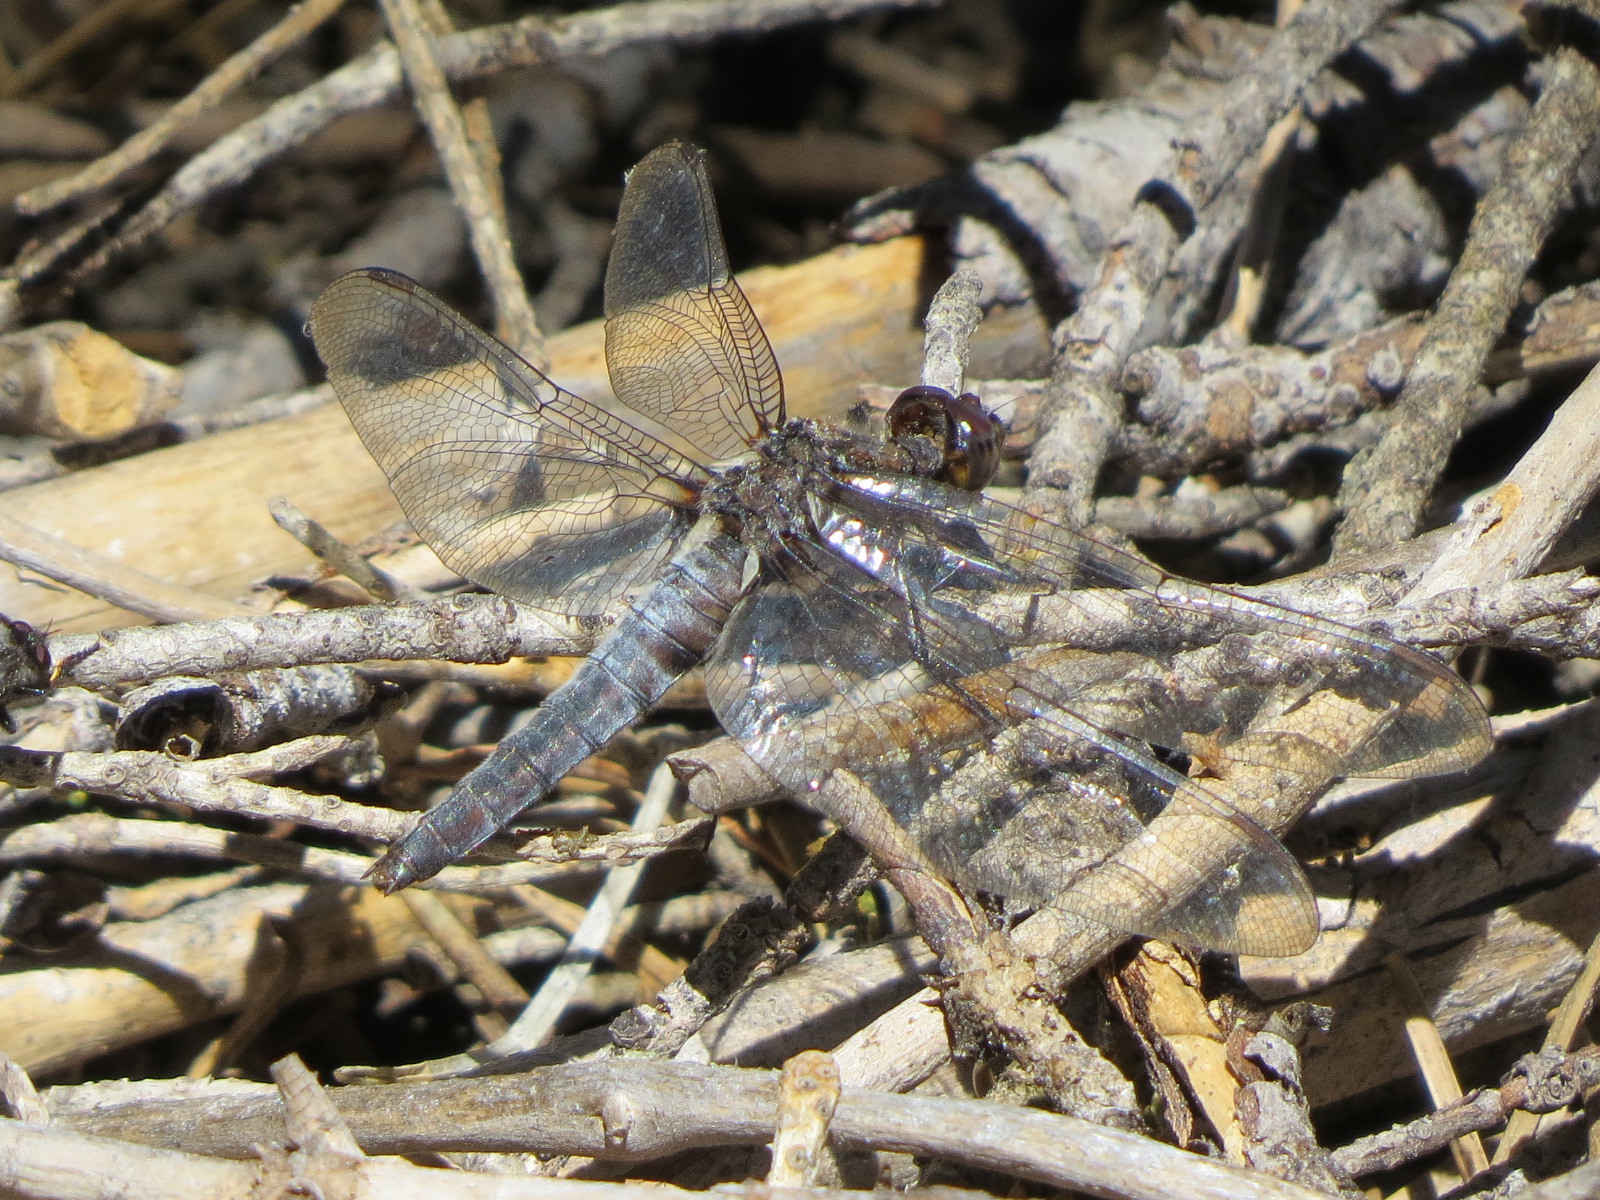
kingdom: Animalia
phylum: Arthropoda
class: Insecta
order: Odonata
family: Libellulidae
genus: Ladona
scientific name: Ladona julia
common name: Chalk-fronted corporal
